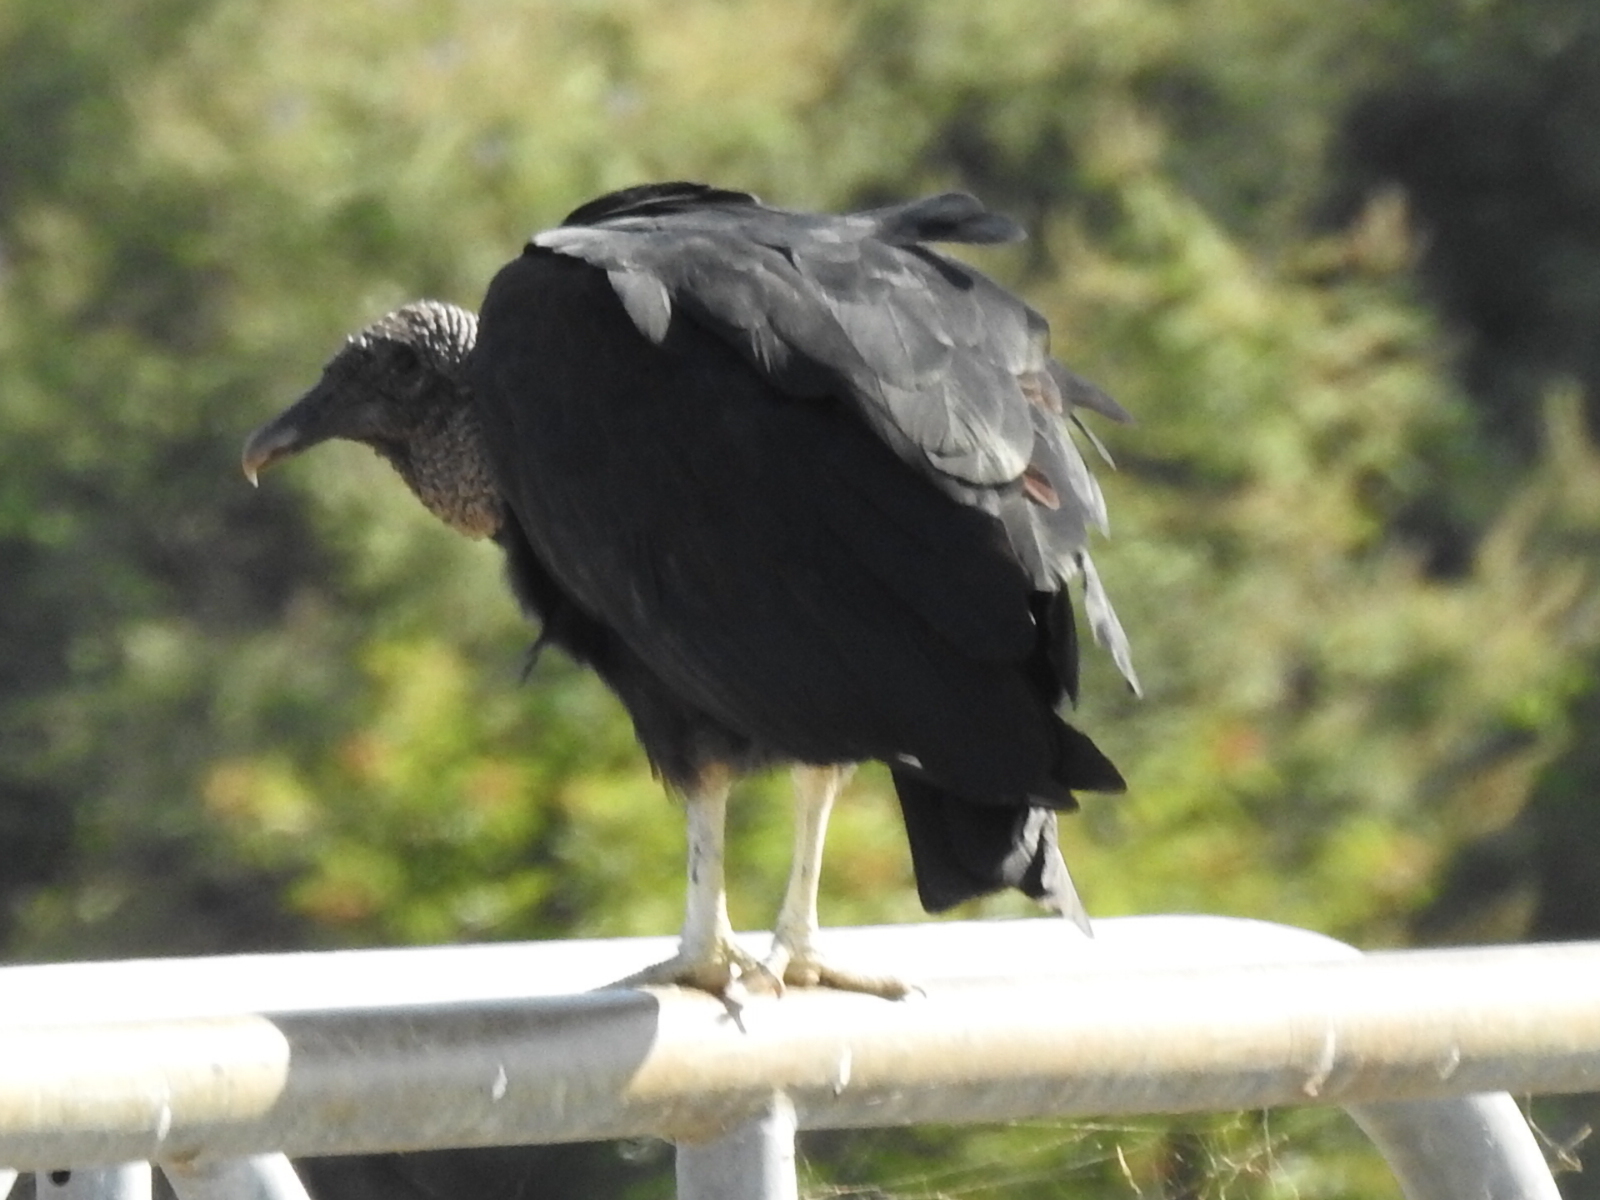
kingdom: Animalia
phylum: Chordata
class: Aves
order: Accipitriformes
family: Cathartidae
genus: Coragyps
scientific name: Coragyps atratus
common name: Black vulture
